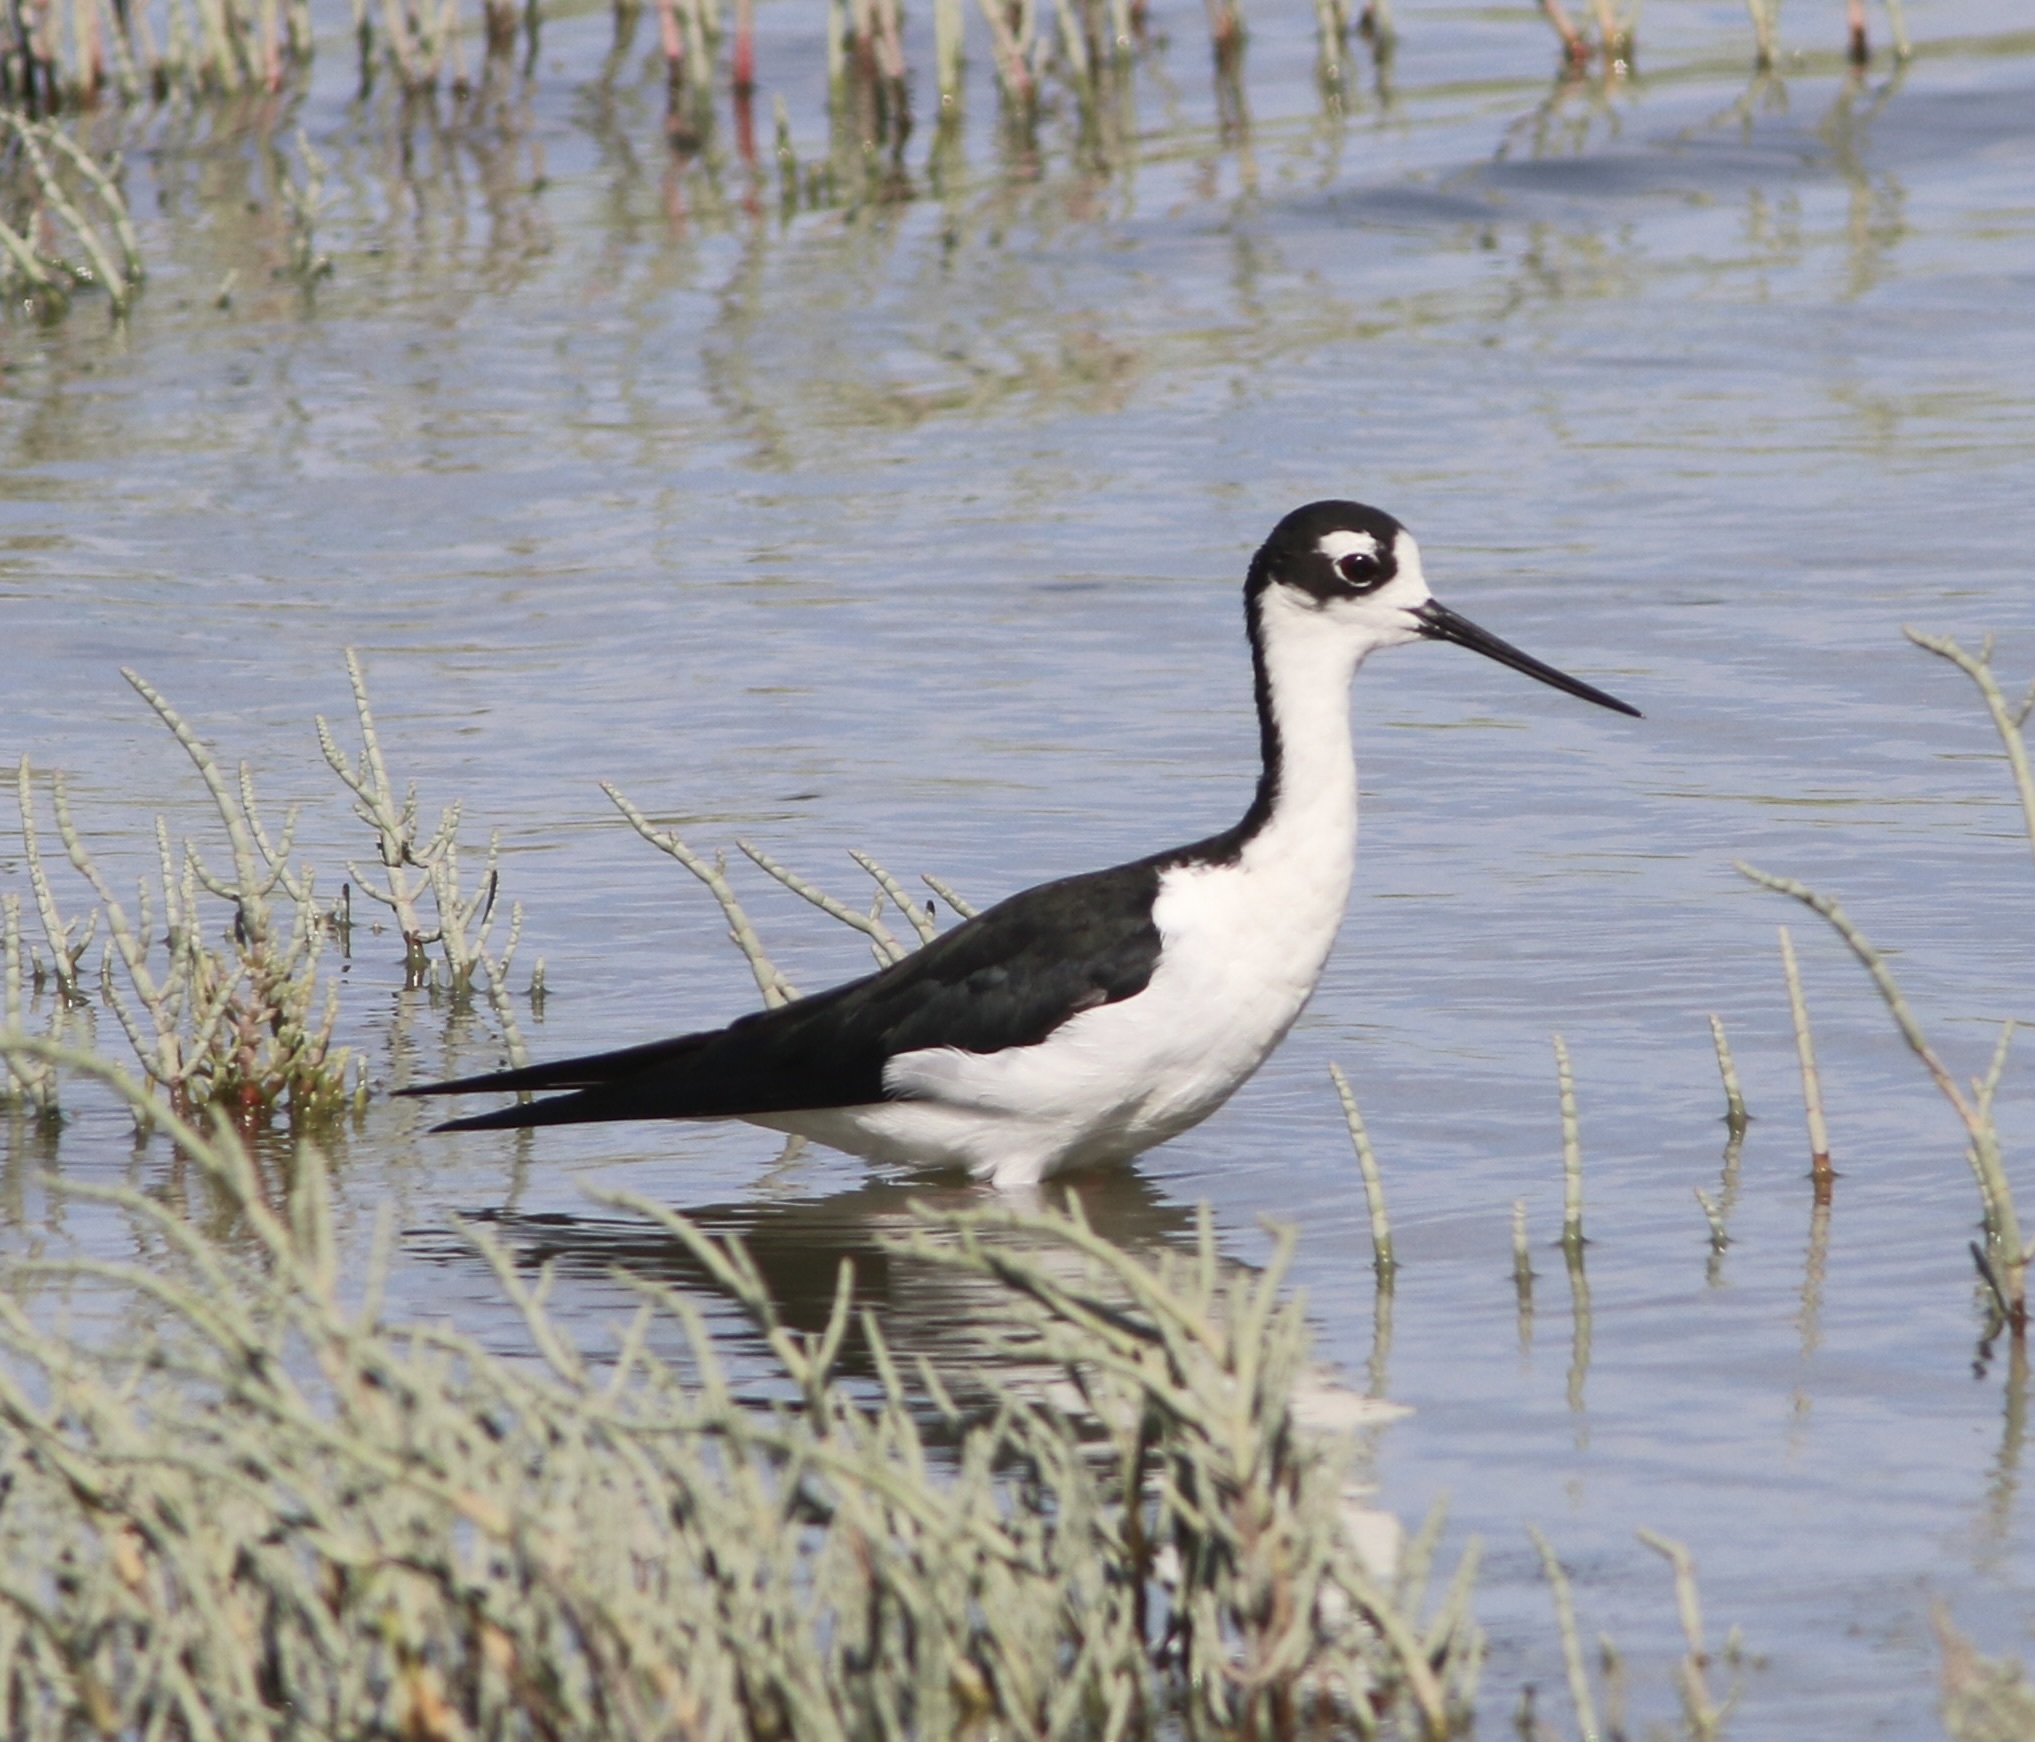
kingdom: Animalia
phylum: Chordata
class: Aves
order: Charadriiformes
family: Recurvirostridae
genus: Himantopus
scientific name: Himantopus mexicanus
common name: Black-necked stilt
